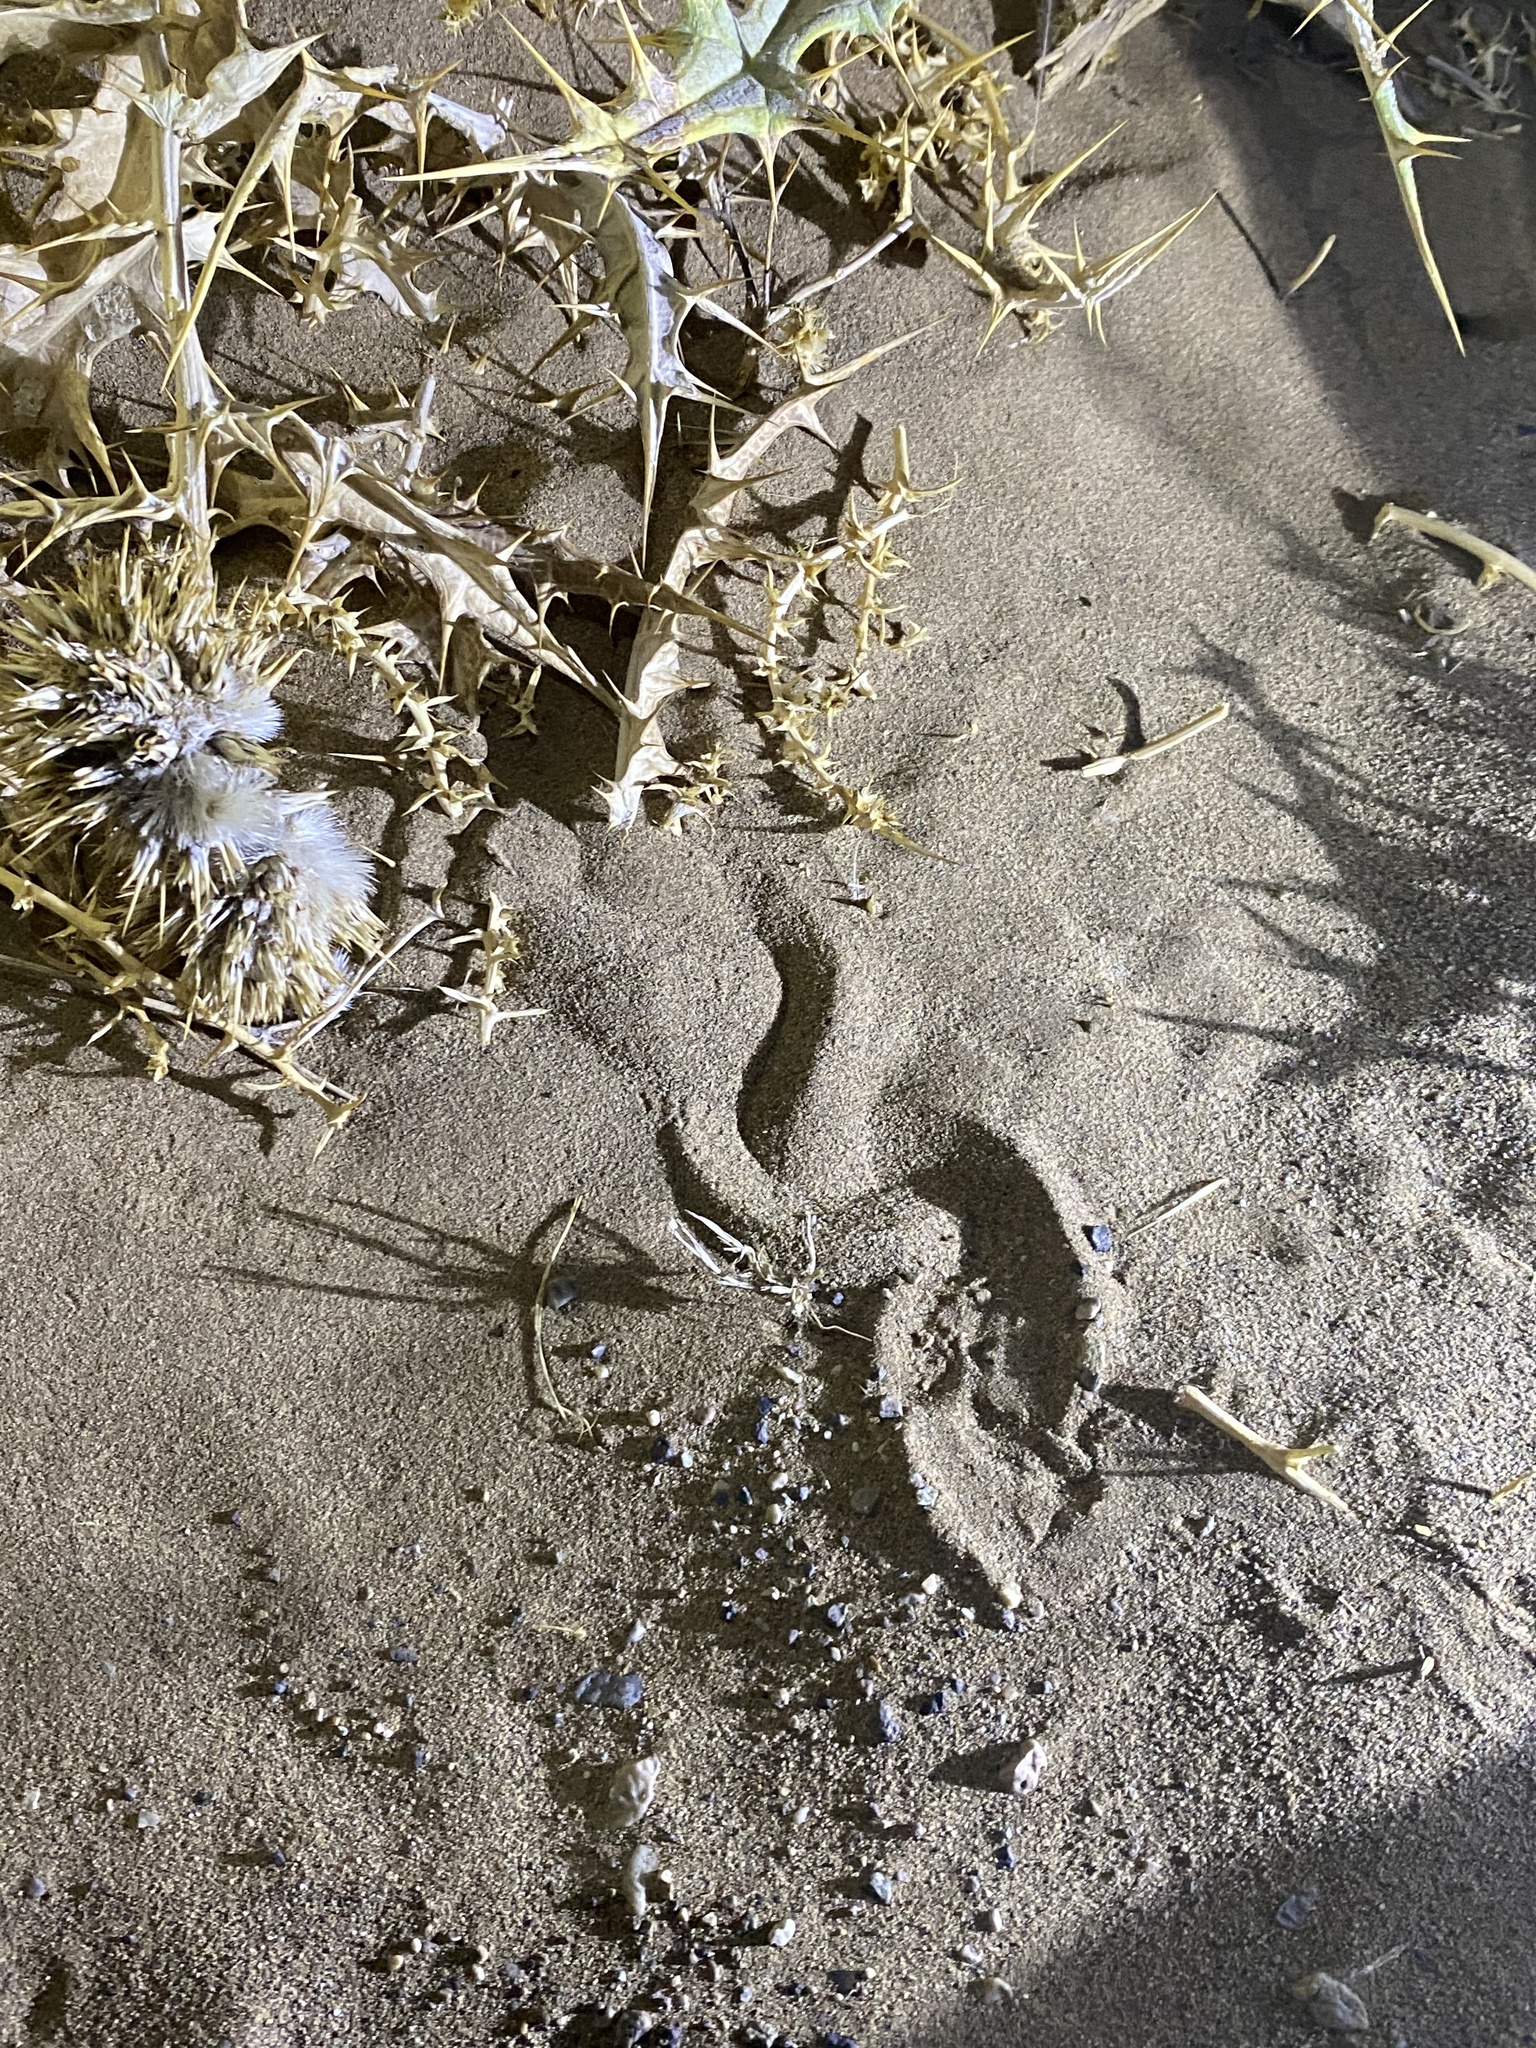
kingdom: Animalia
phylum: Chordata
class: Squamata
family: Scincidae
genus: Ophiomorus
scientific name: Ophiomorus maranjabensis
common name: Maranjab’s snake skink
